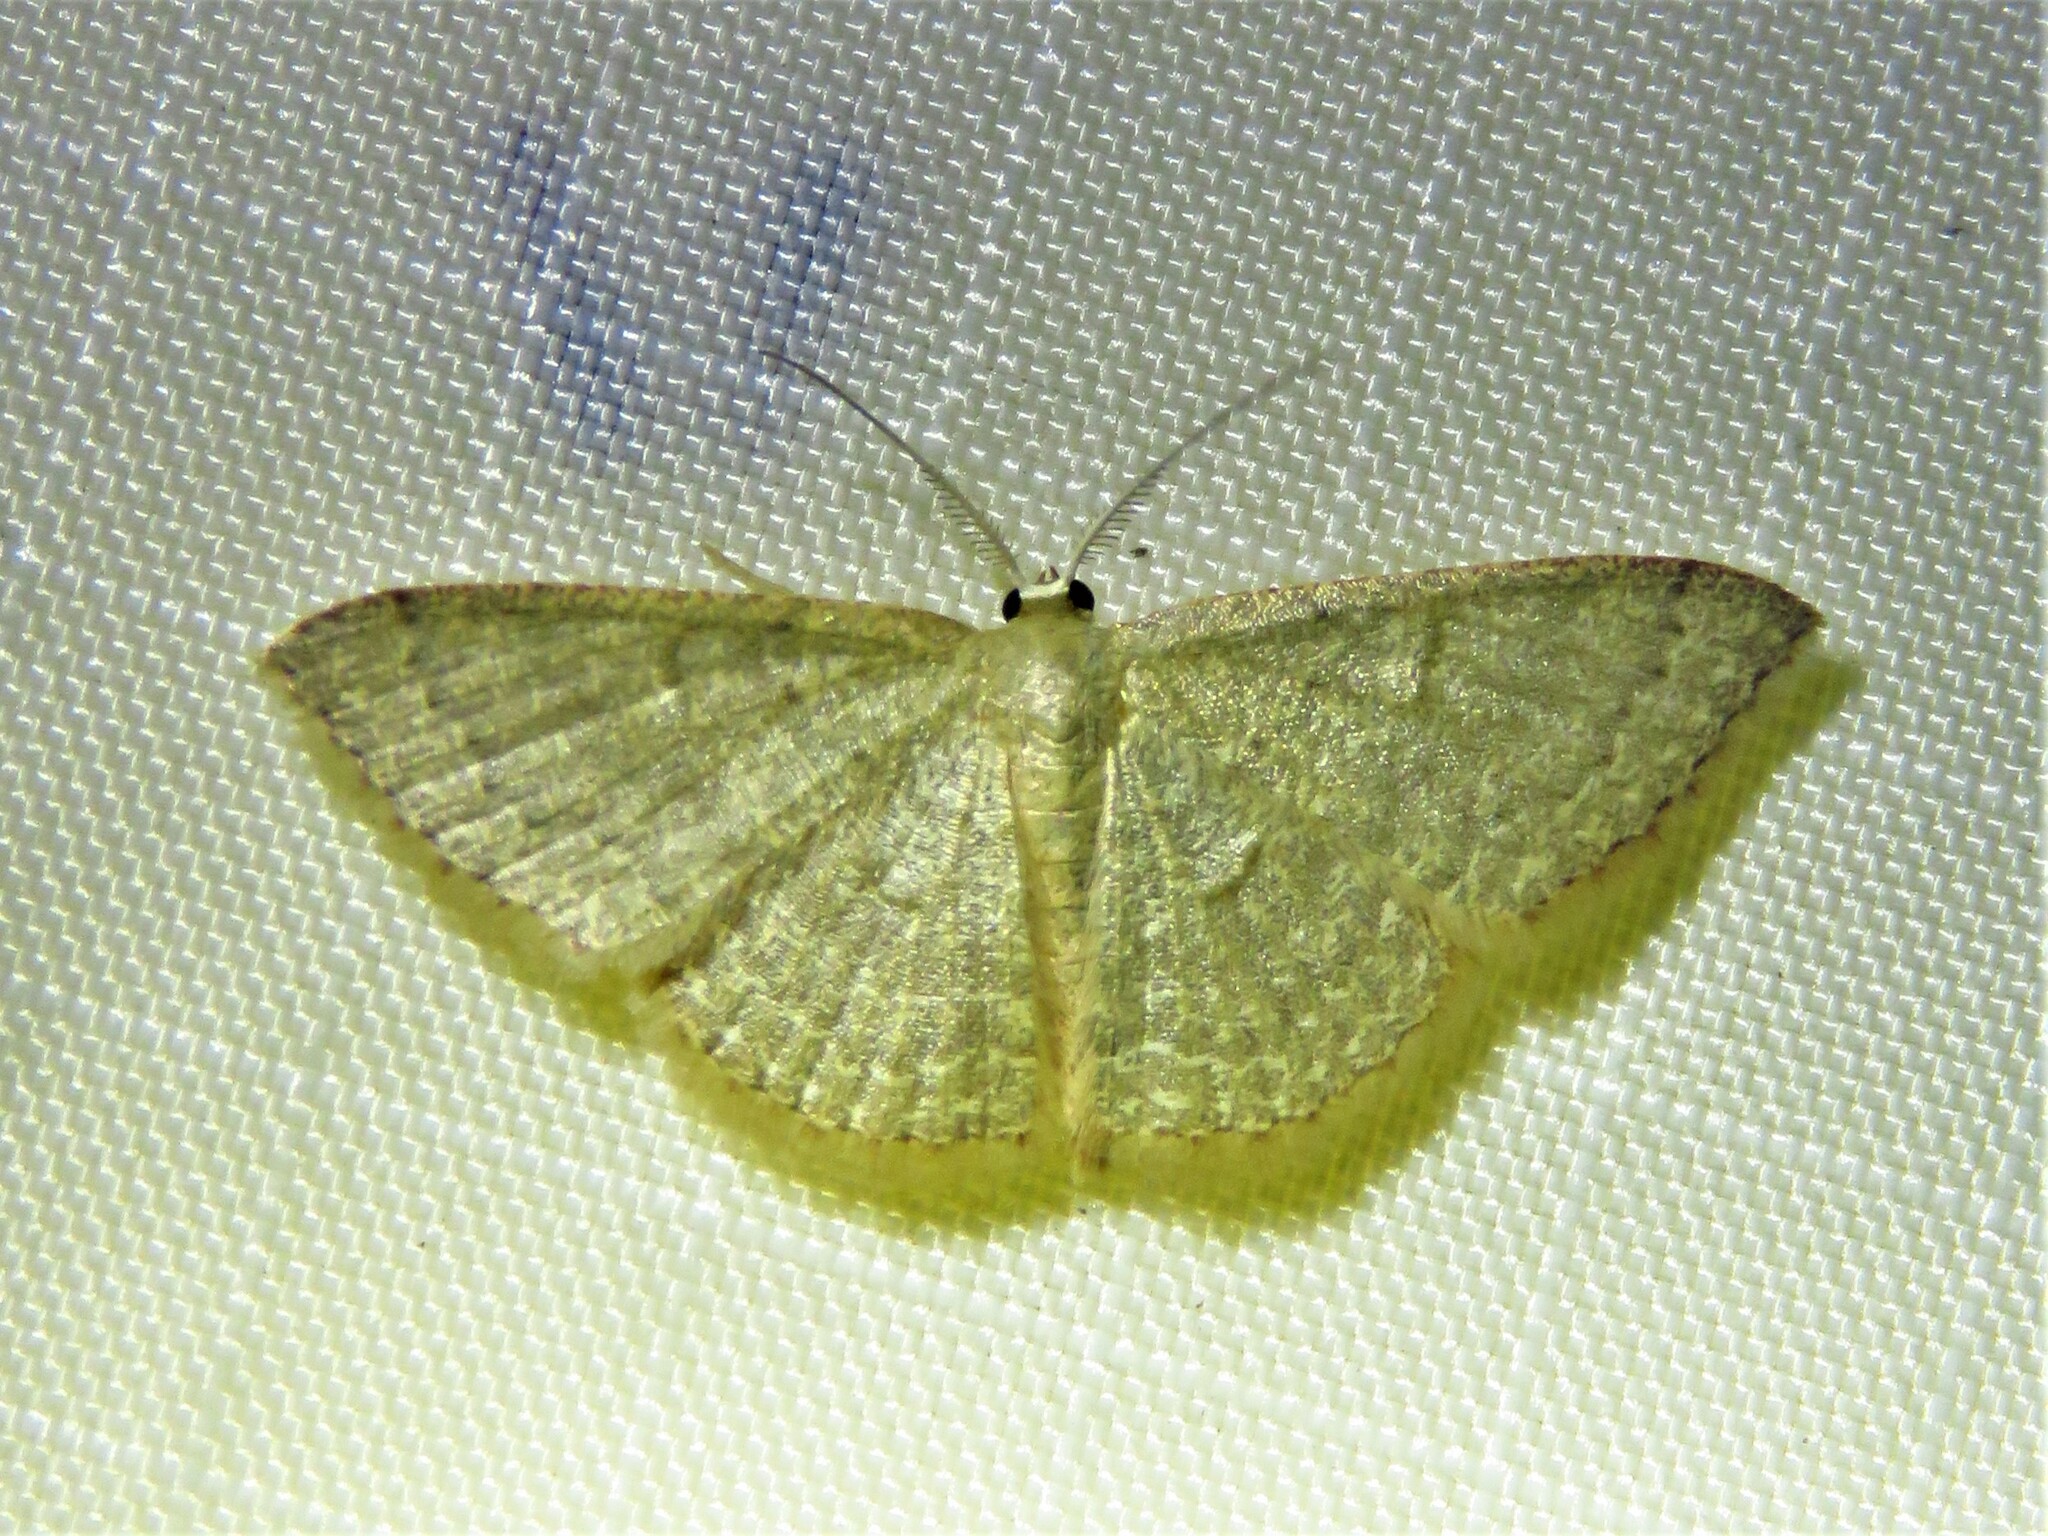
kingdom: Animalia
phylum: Arthropoda
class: Insecta
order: Lepidoptera
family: Geometridae
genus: Pleuroprucha
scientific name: Pleuroprucha insulsaria
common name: Common tan wave
